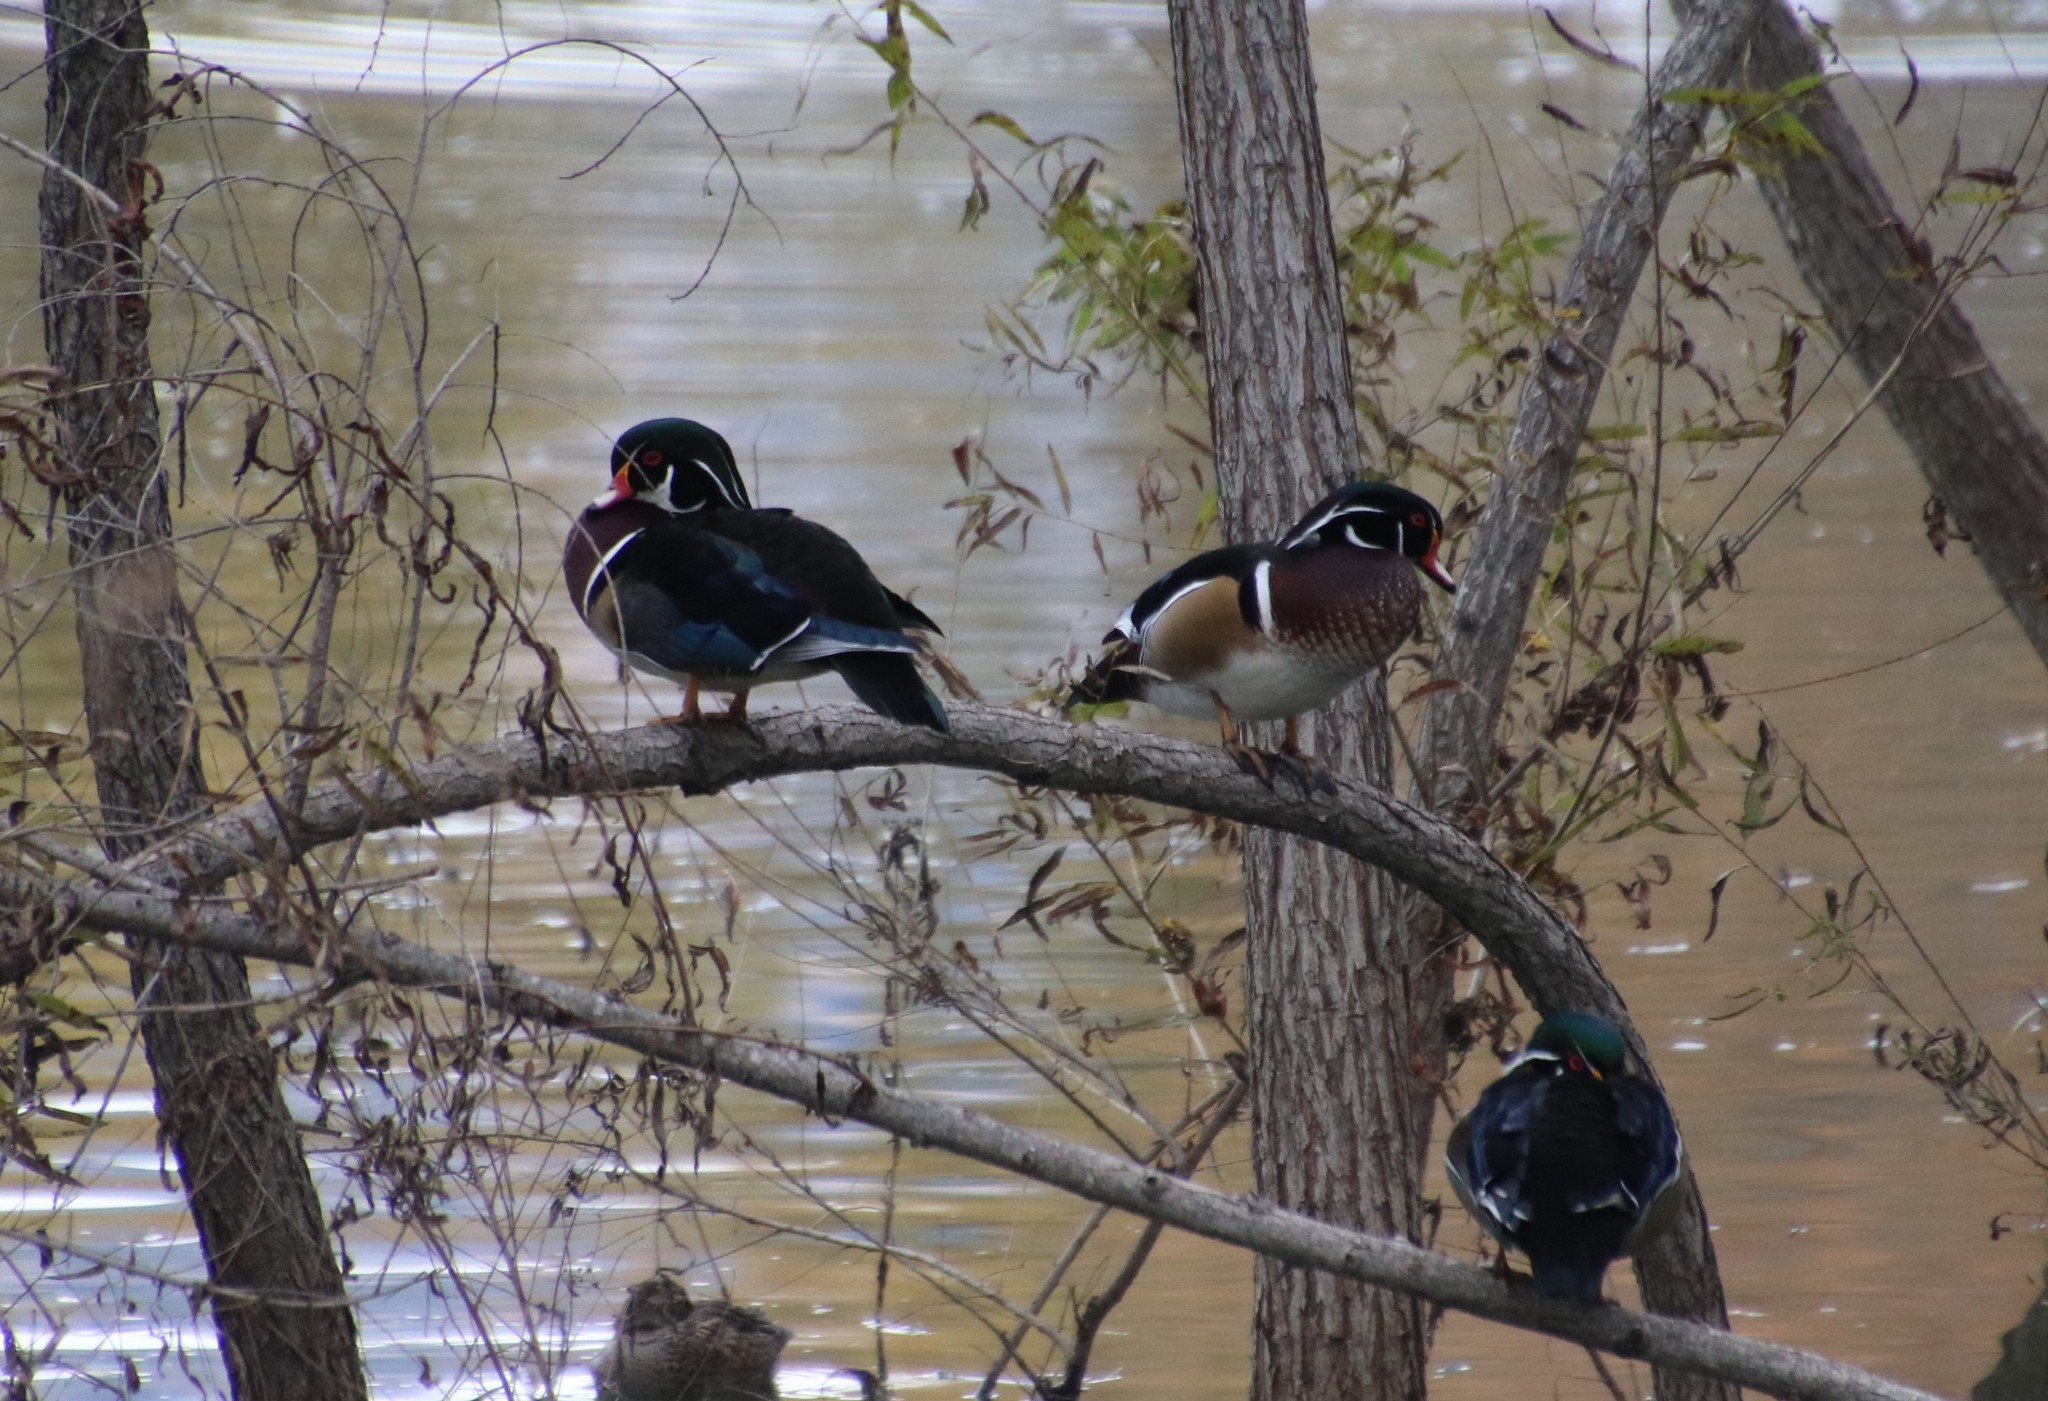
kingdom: Animalia
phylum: Chordata
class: Aves
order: Anseriformes
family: Anatidae
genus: Aix
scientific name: Aix sponsa
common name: Wood duck
